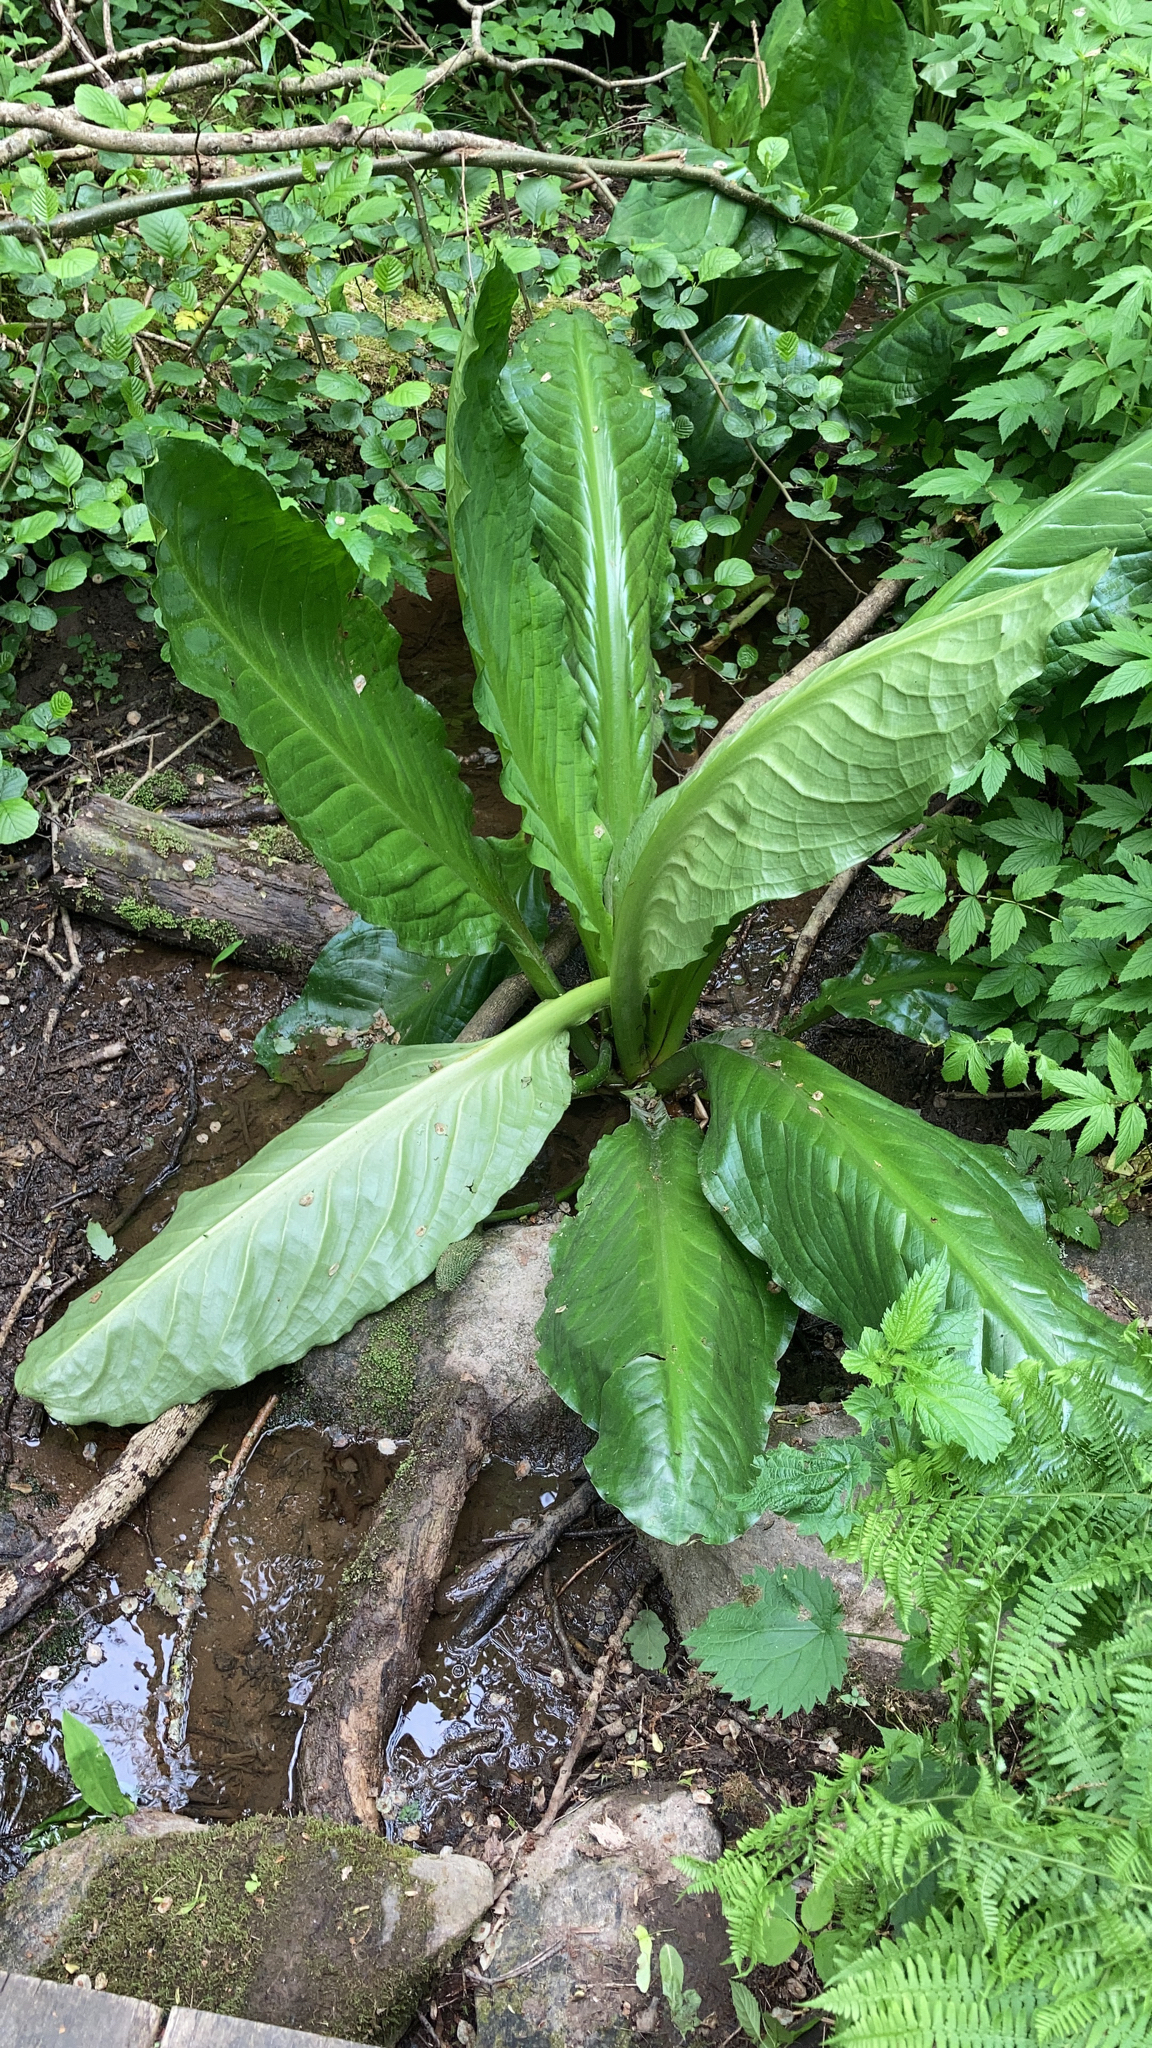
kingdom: Plantae
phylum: Tracheophyta
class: Liliopsida
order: Alismatales
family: Araceae
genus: Lysichiton
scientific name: Lysichiton americanus
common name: American skunk cabbage
